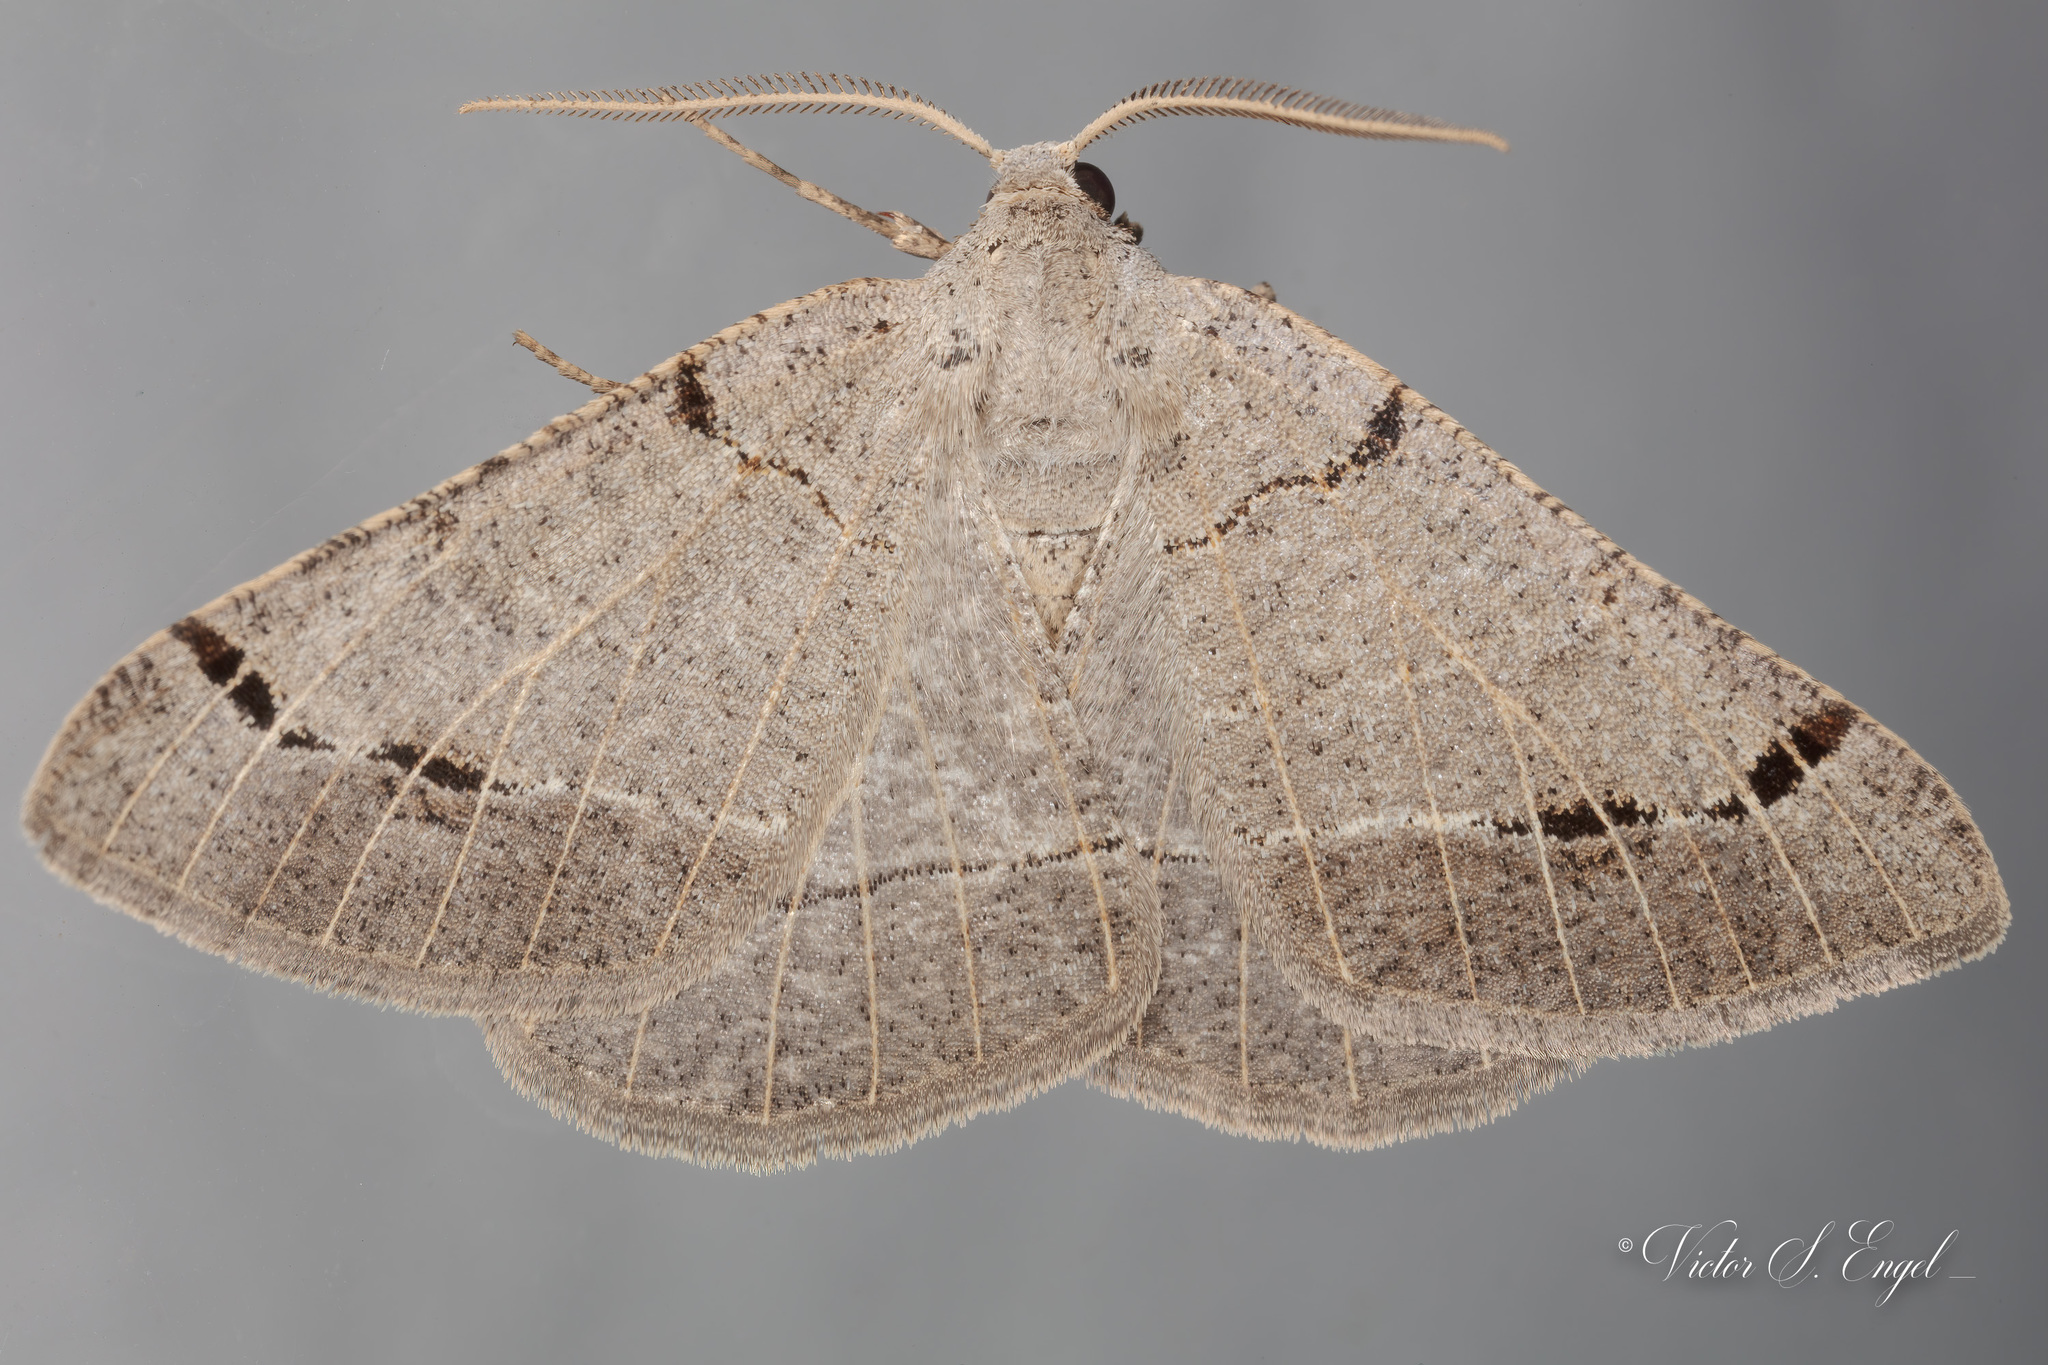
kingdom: Animalia
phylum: Arthropoda
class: Insecta
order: Lepidoptera
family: Geometridae
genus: Isturgia
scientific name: Isturgia dislocaria
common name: Pale-viened enconista
